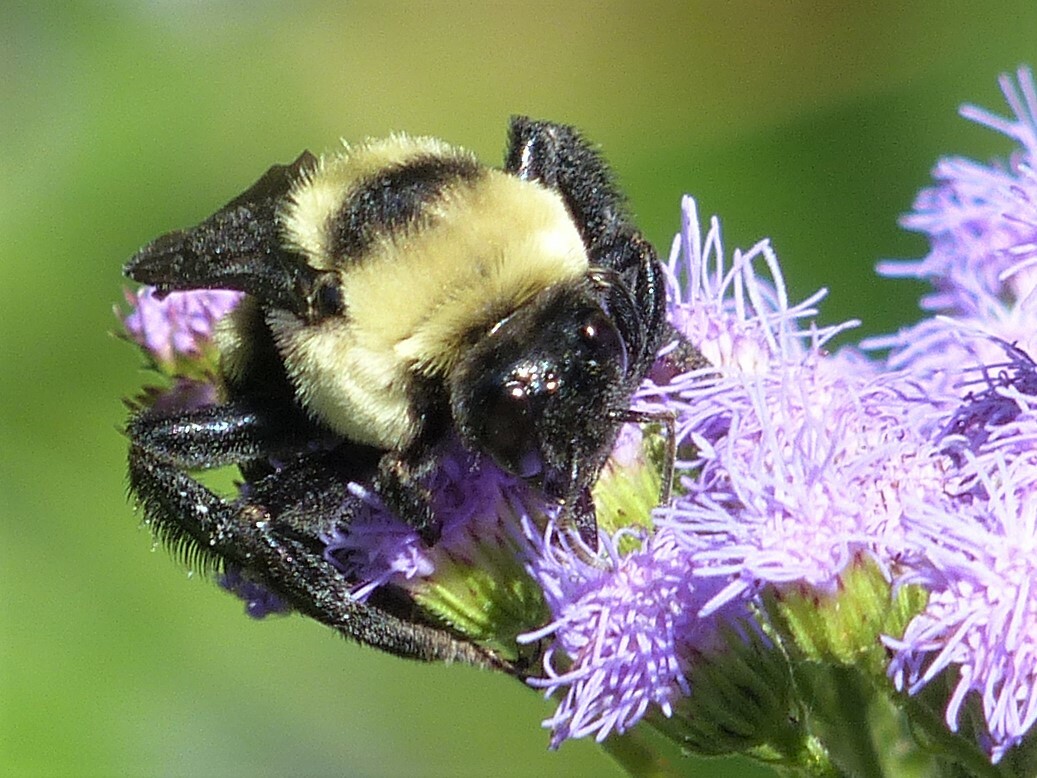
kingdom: Animalia
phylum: Arthropoda
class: Insecta
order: Hymenoptera
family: Apidae
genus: Bombus
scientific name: Bombus fraternus
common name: Southern plains bumble bee
